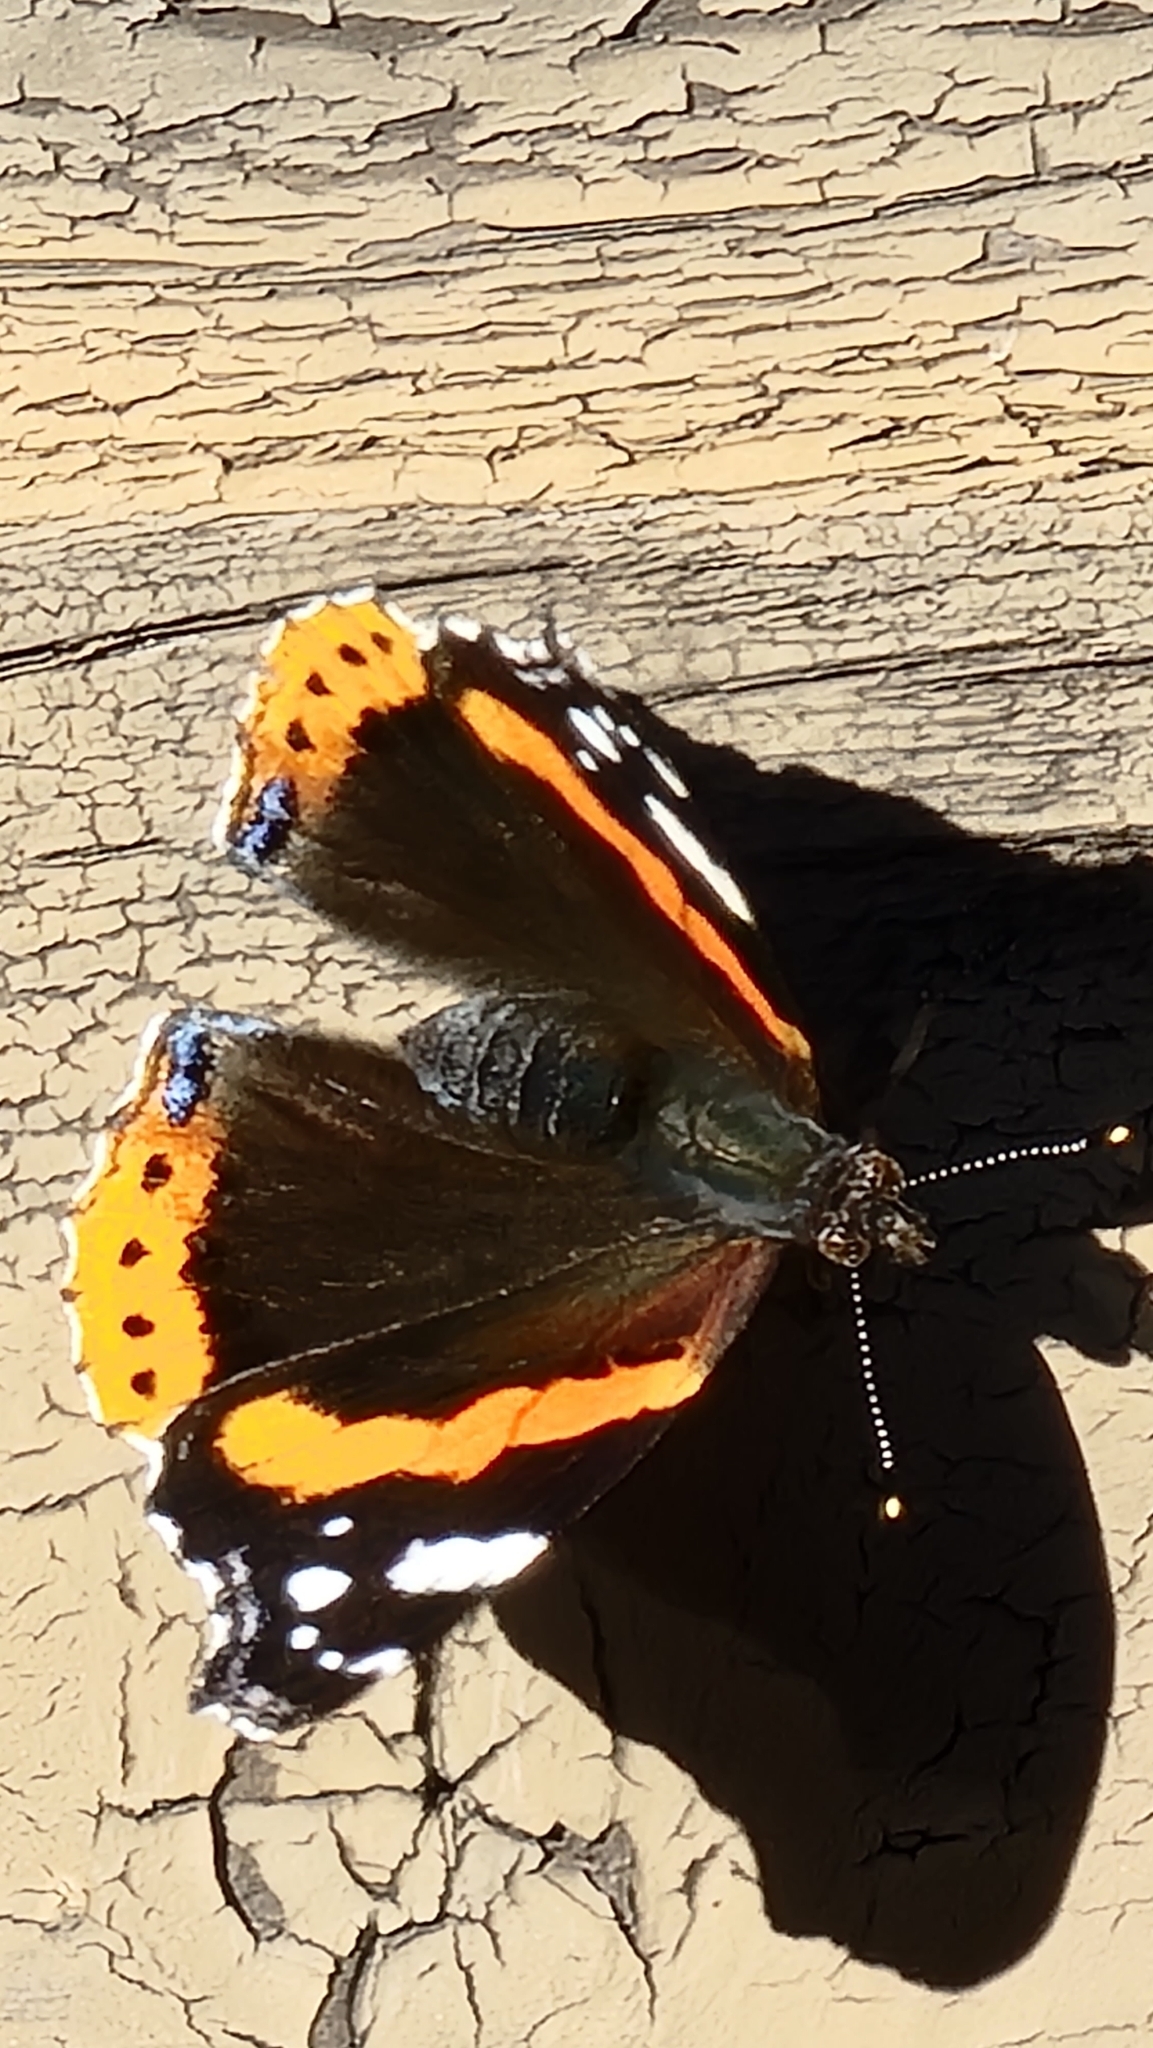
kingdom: Animalia
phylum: Arthropoda
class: Insecta
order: Lepidoptera
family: Nymphalidae
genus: Vanessa
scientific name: Vanessa atalanta
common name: Red admiral
